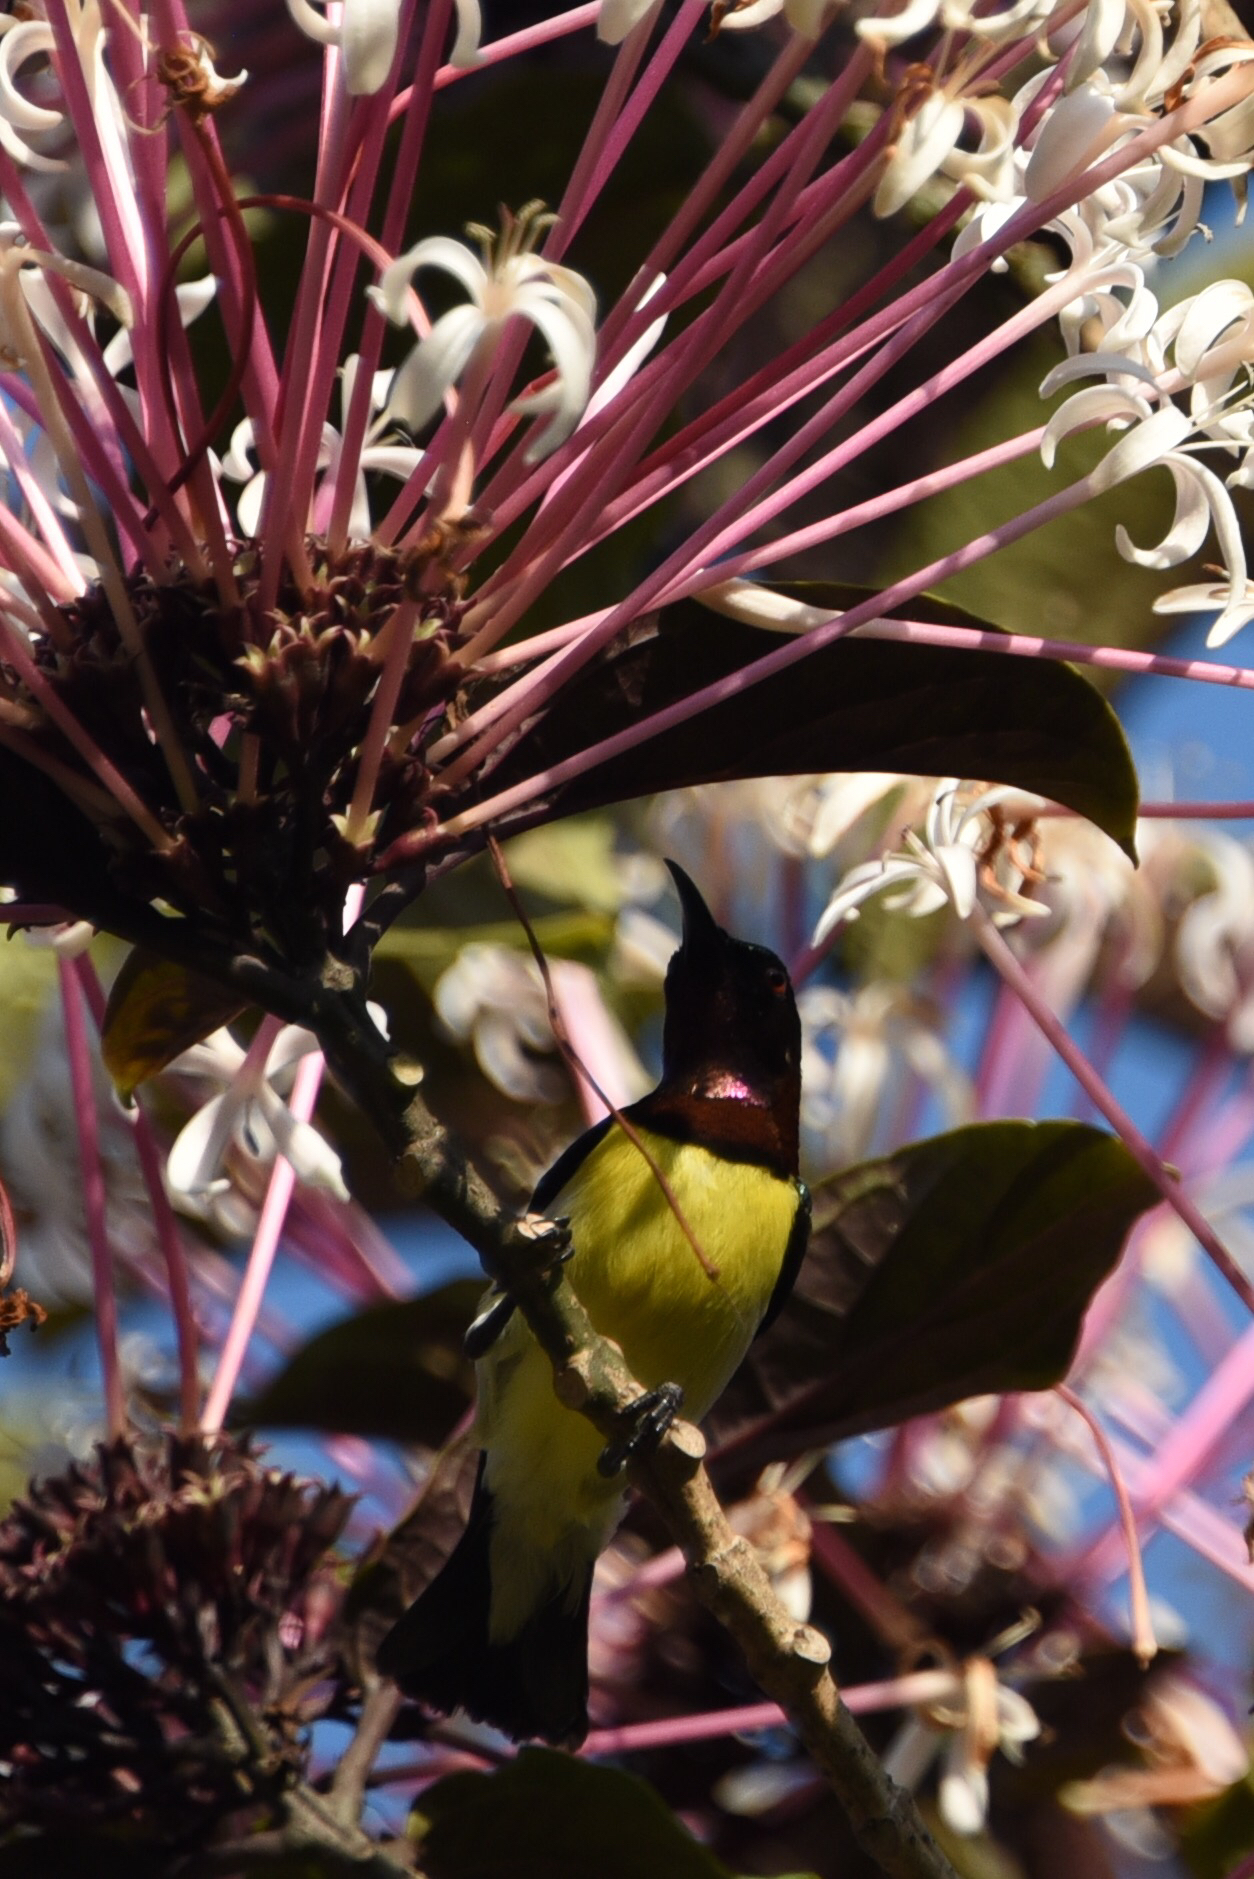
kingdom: Animalia
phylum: Chordata
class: Aves
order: Passeriformes
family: Nectariniidae
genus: Leptocoma
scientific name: Leptocoma zeylonica
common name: Purple-rumped sunbird
